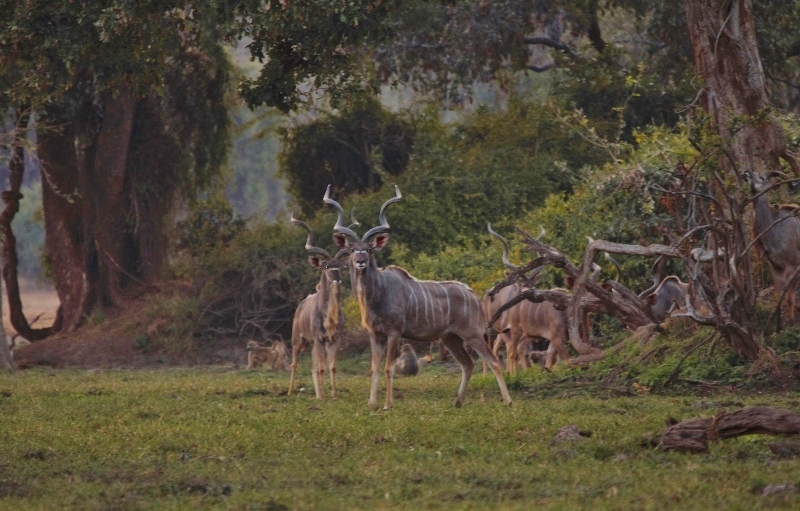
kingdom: Animalia
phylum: Chordata
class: Mammalia
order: Artiodactyla
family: Bovidae
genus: Tragelaphus
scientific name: Tragelaphus strepsiceros
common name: Greater kudu
